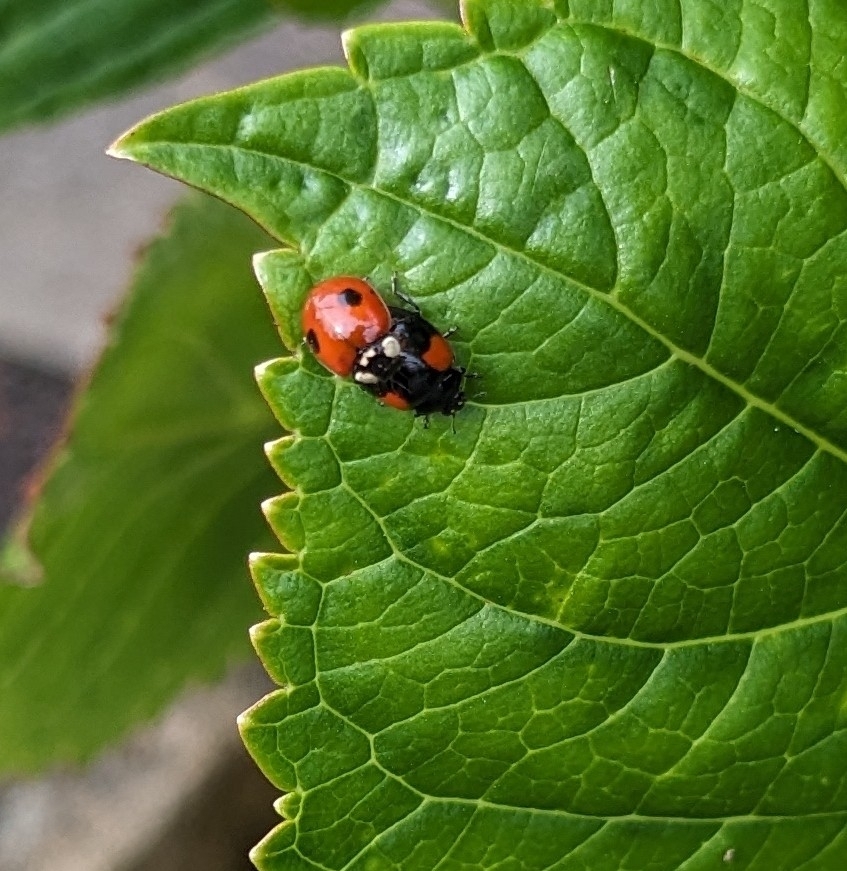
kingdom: Animalia
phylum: Arthropoda
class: Insecta
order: Coleoptera
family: Coccinellidae
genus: Adalia
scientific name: Adalia bipunctata
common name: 2-spot ladybird
